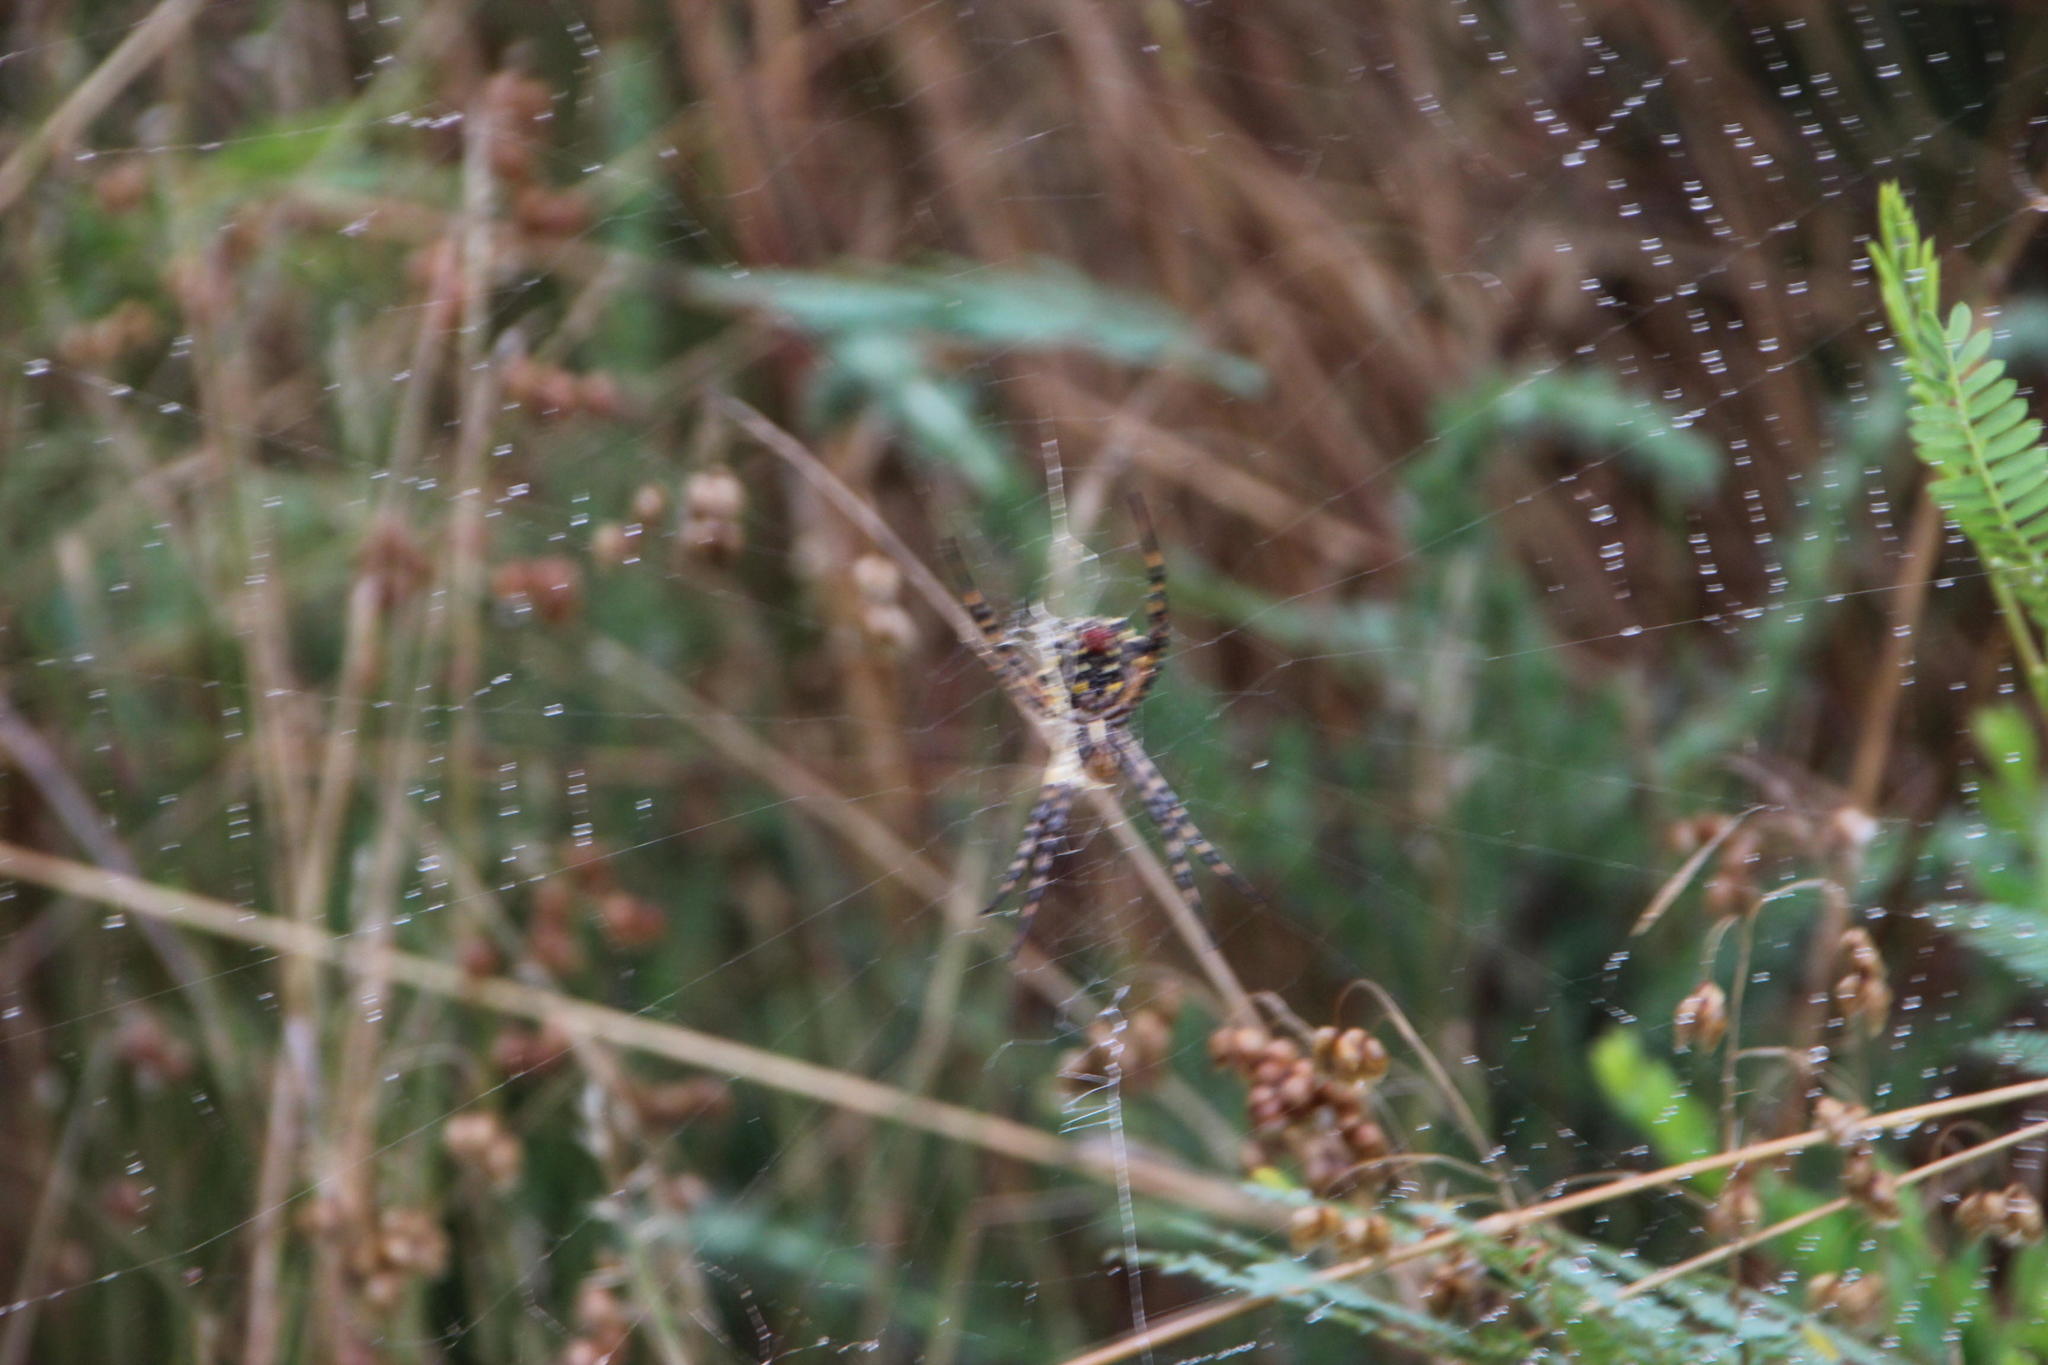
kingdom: Animalia
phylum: Arthropoda
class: Arachnida
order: Araneae
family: Araneidae
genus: Argiope
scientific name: Argiope australis
